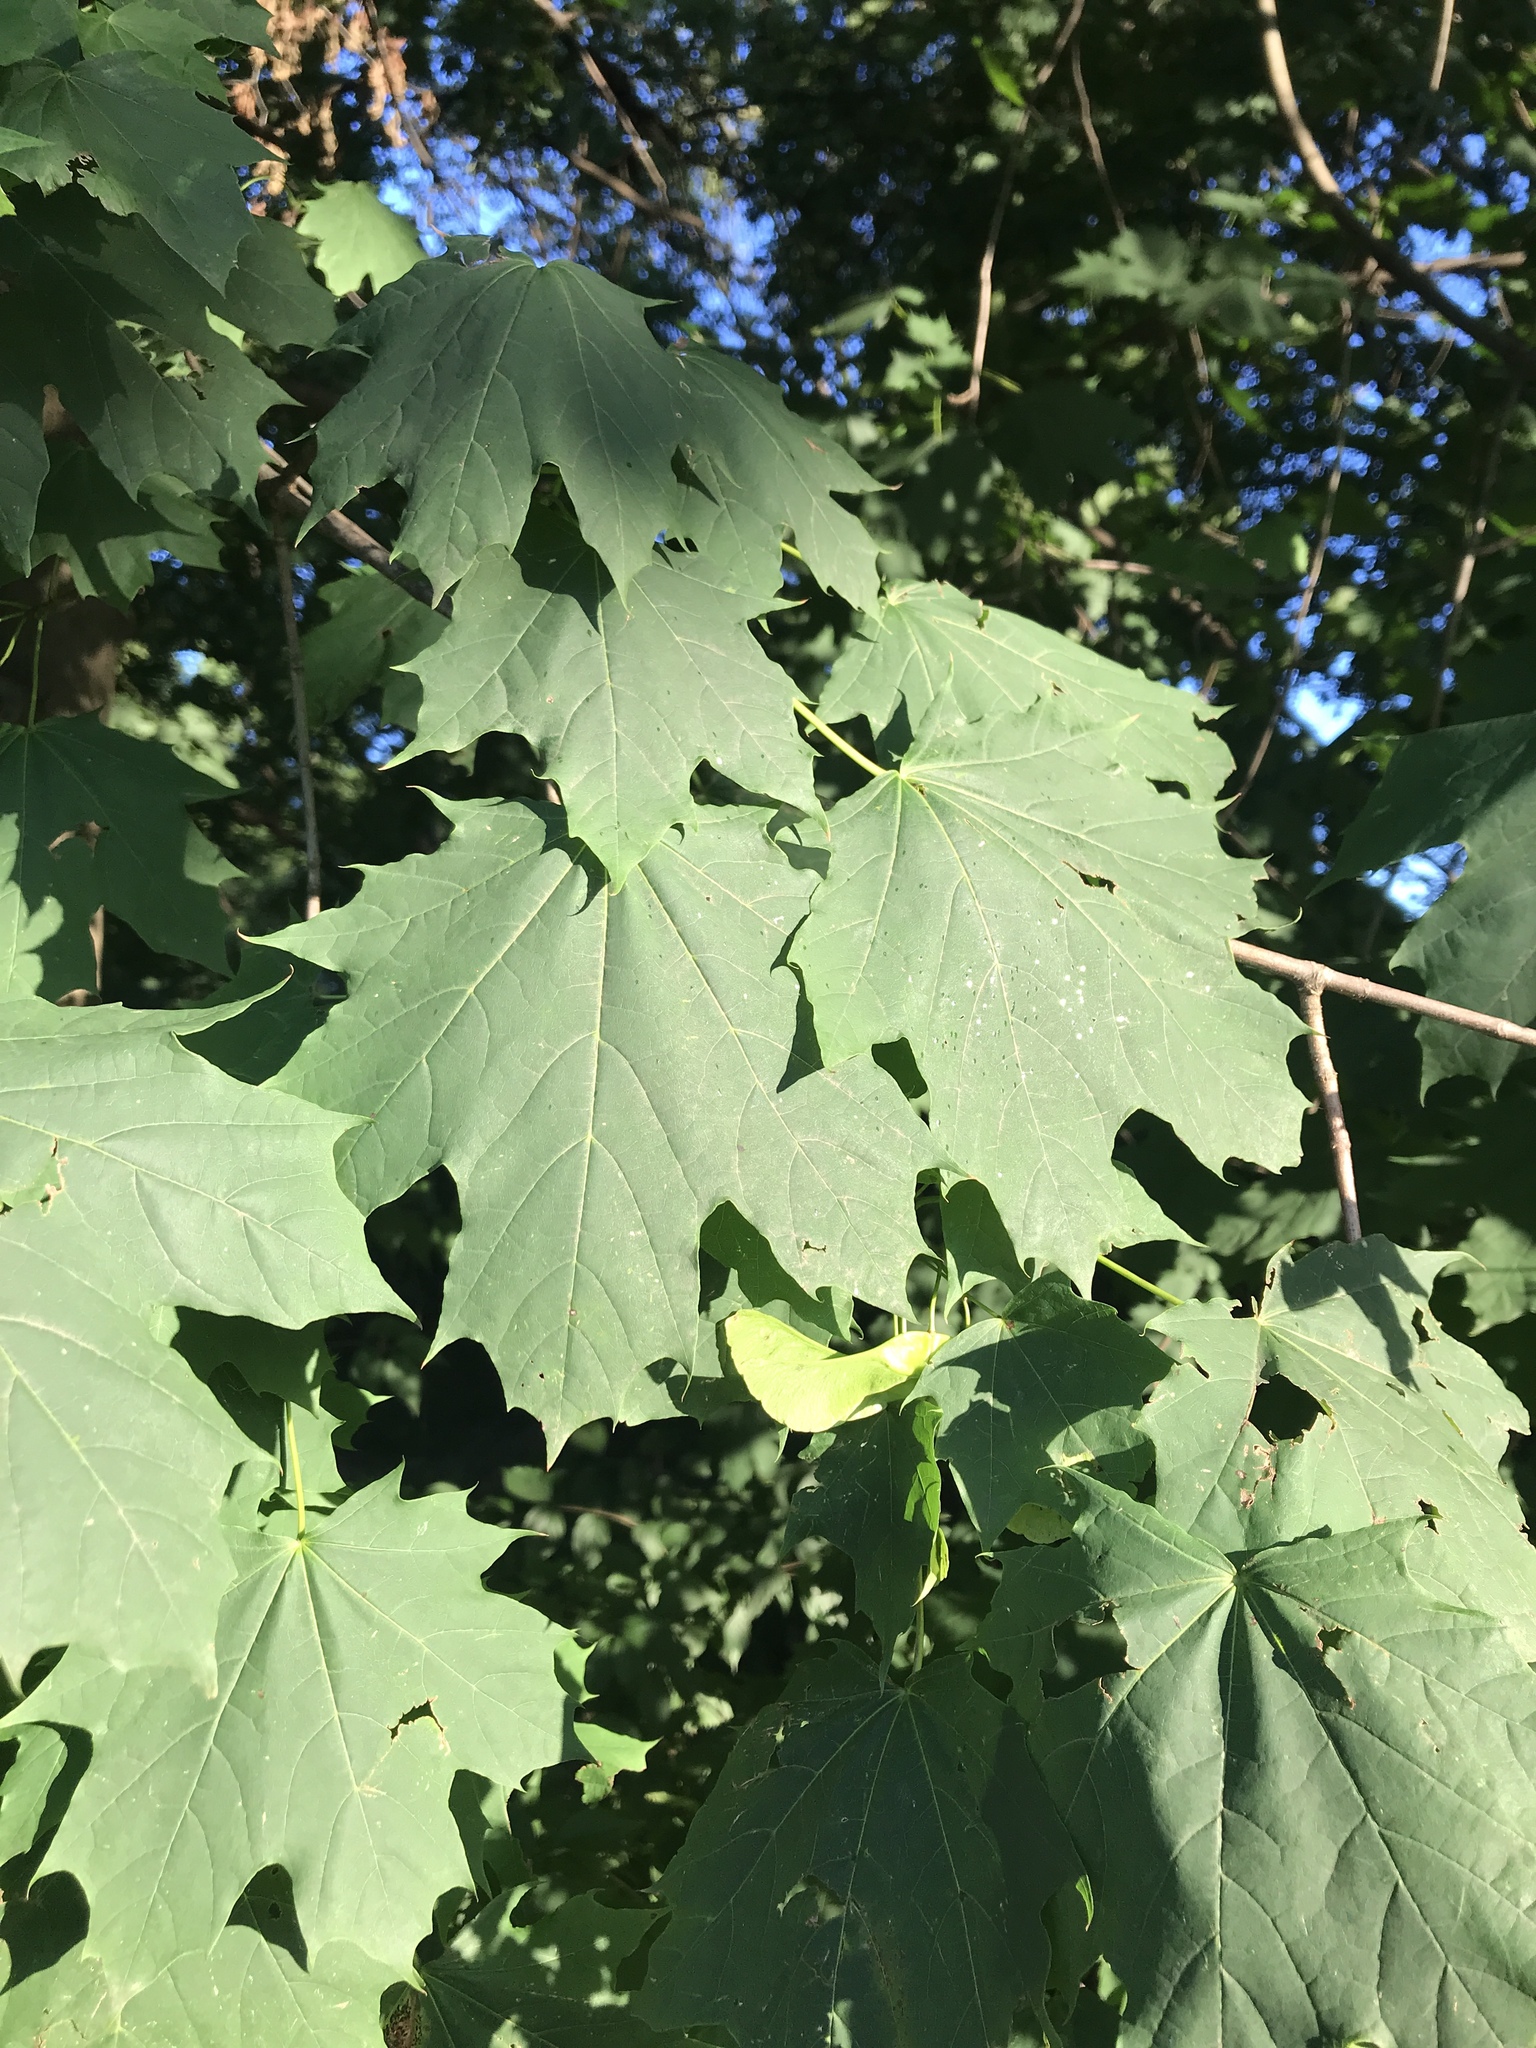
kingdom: Plantae
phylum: Tracheophyta
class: Magnoliopsida
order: Sapindales
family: Sapindaceae
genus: Acer
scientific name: Acer platanoides
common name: Norway maple
